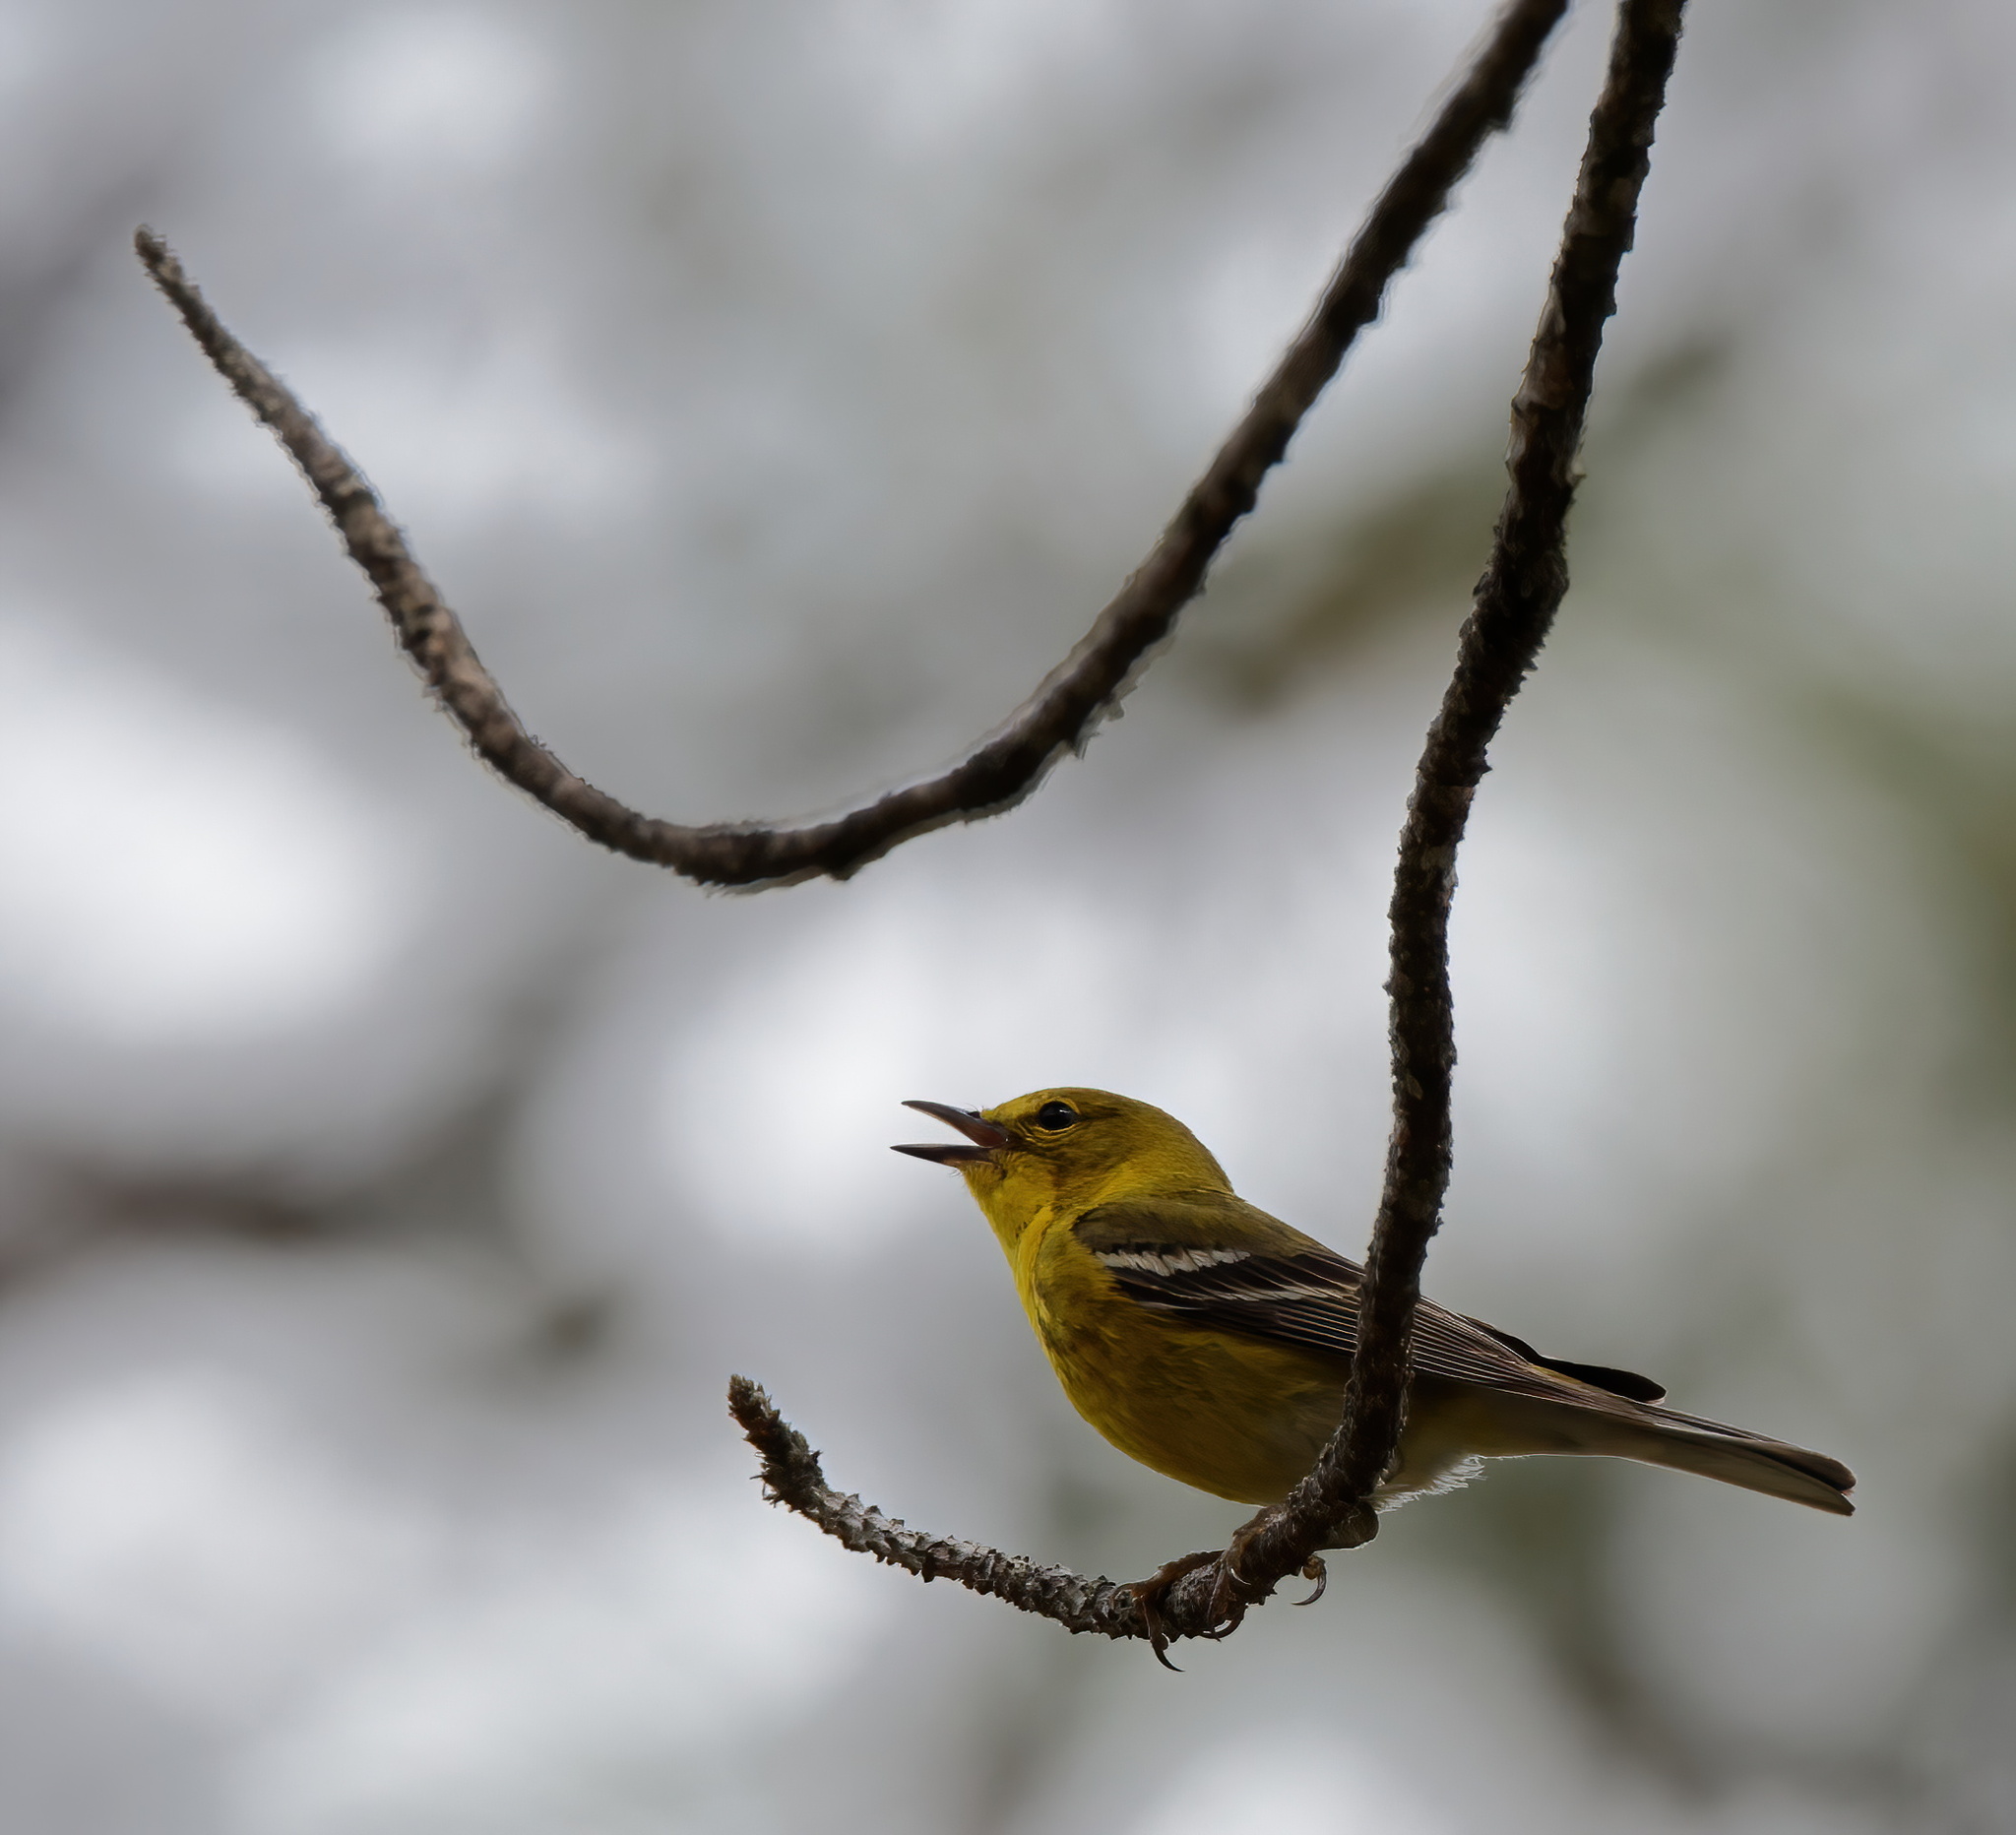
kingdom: Animalia
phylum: Chordata
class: Aves
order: Passeriformes
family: Parulidae
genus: Setophaga
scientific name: Setophaga pinus
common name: Pine warbler
